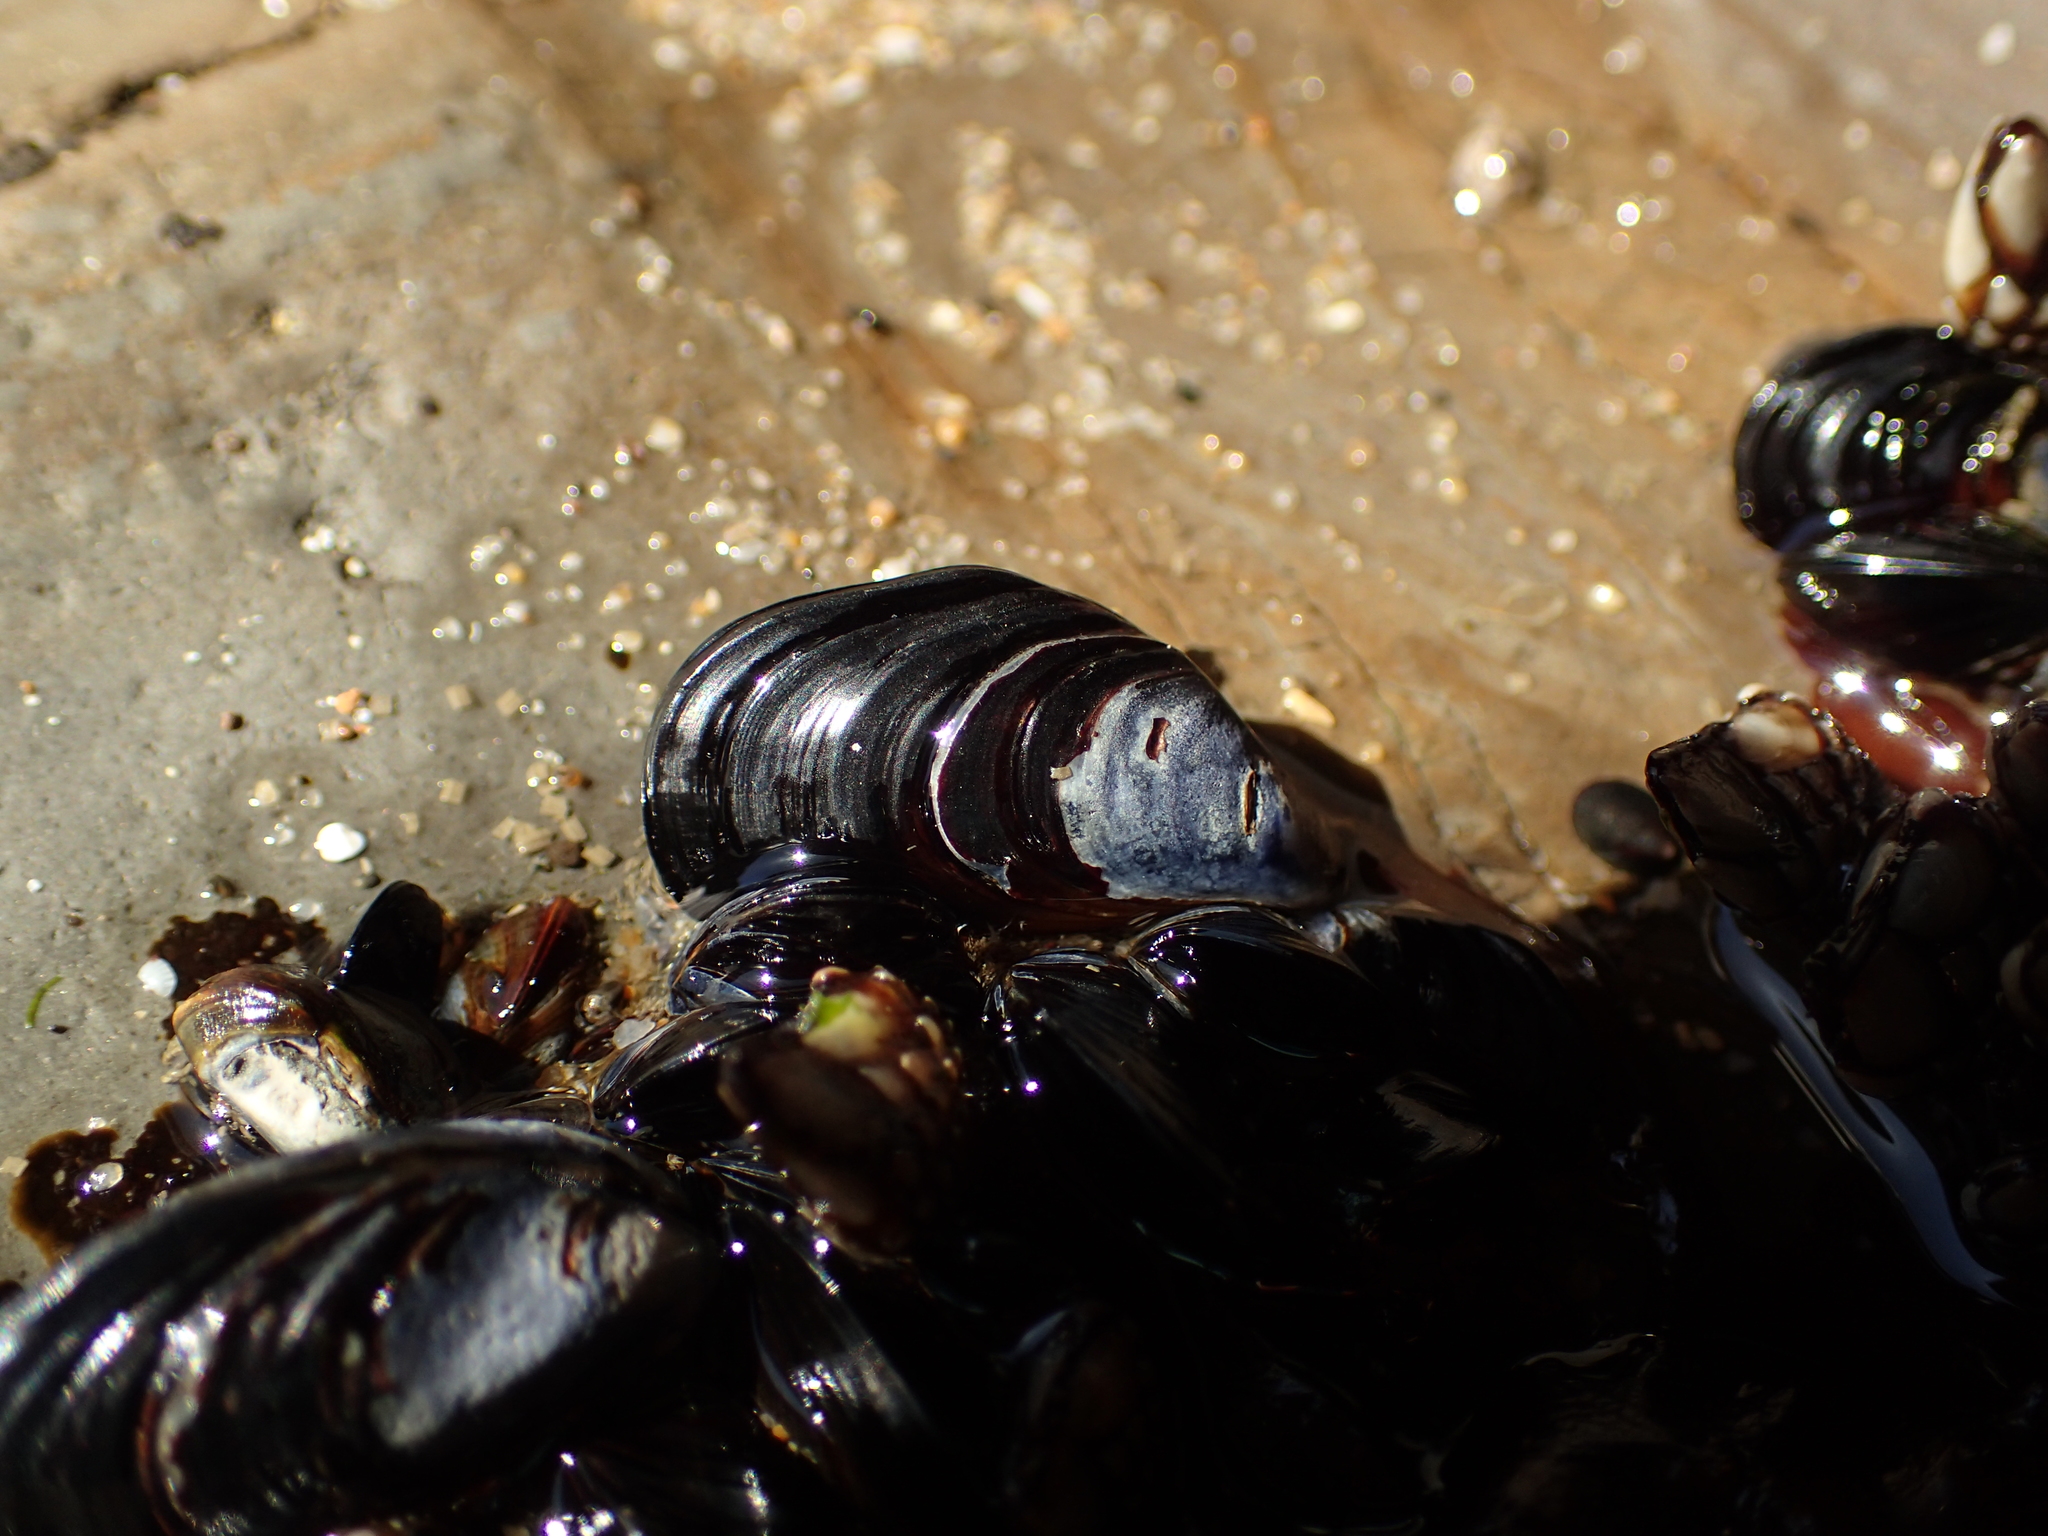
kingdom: Animalia
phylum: Mollusca
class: Bivalvia
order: Mytilida
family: Mytilidae
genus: Mytilus
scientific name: Mytilus californianus
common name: California mussel
